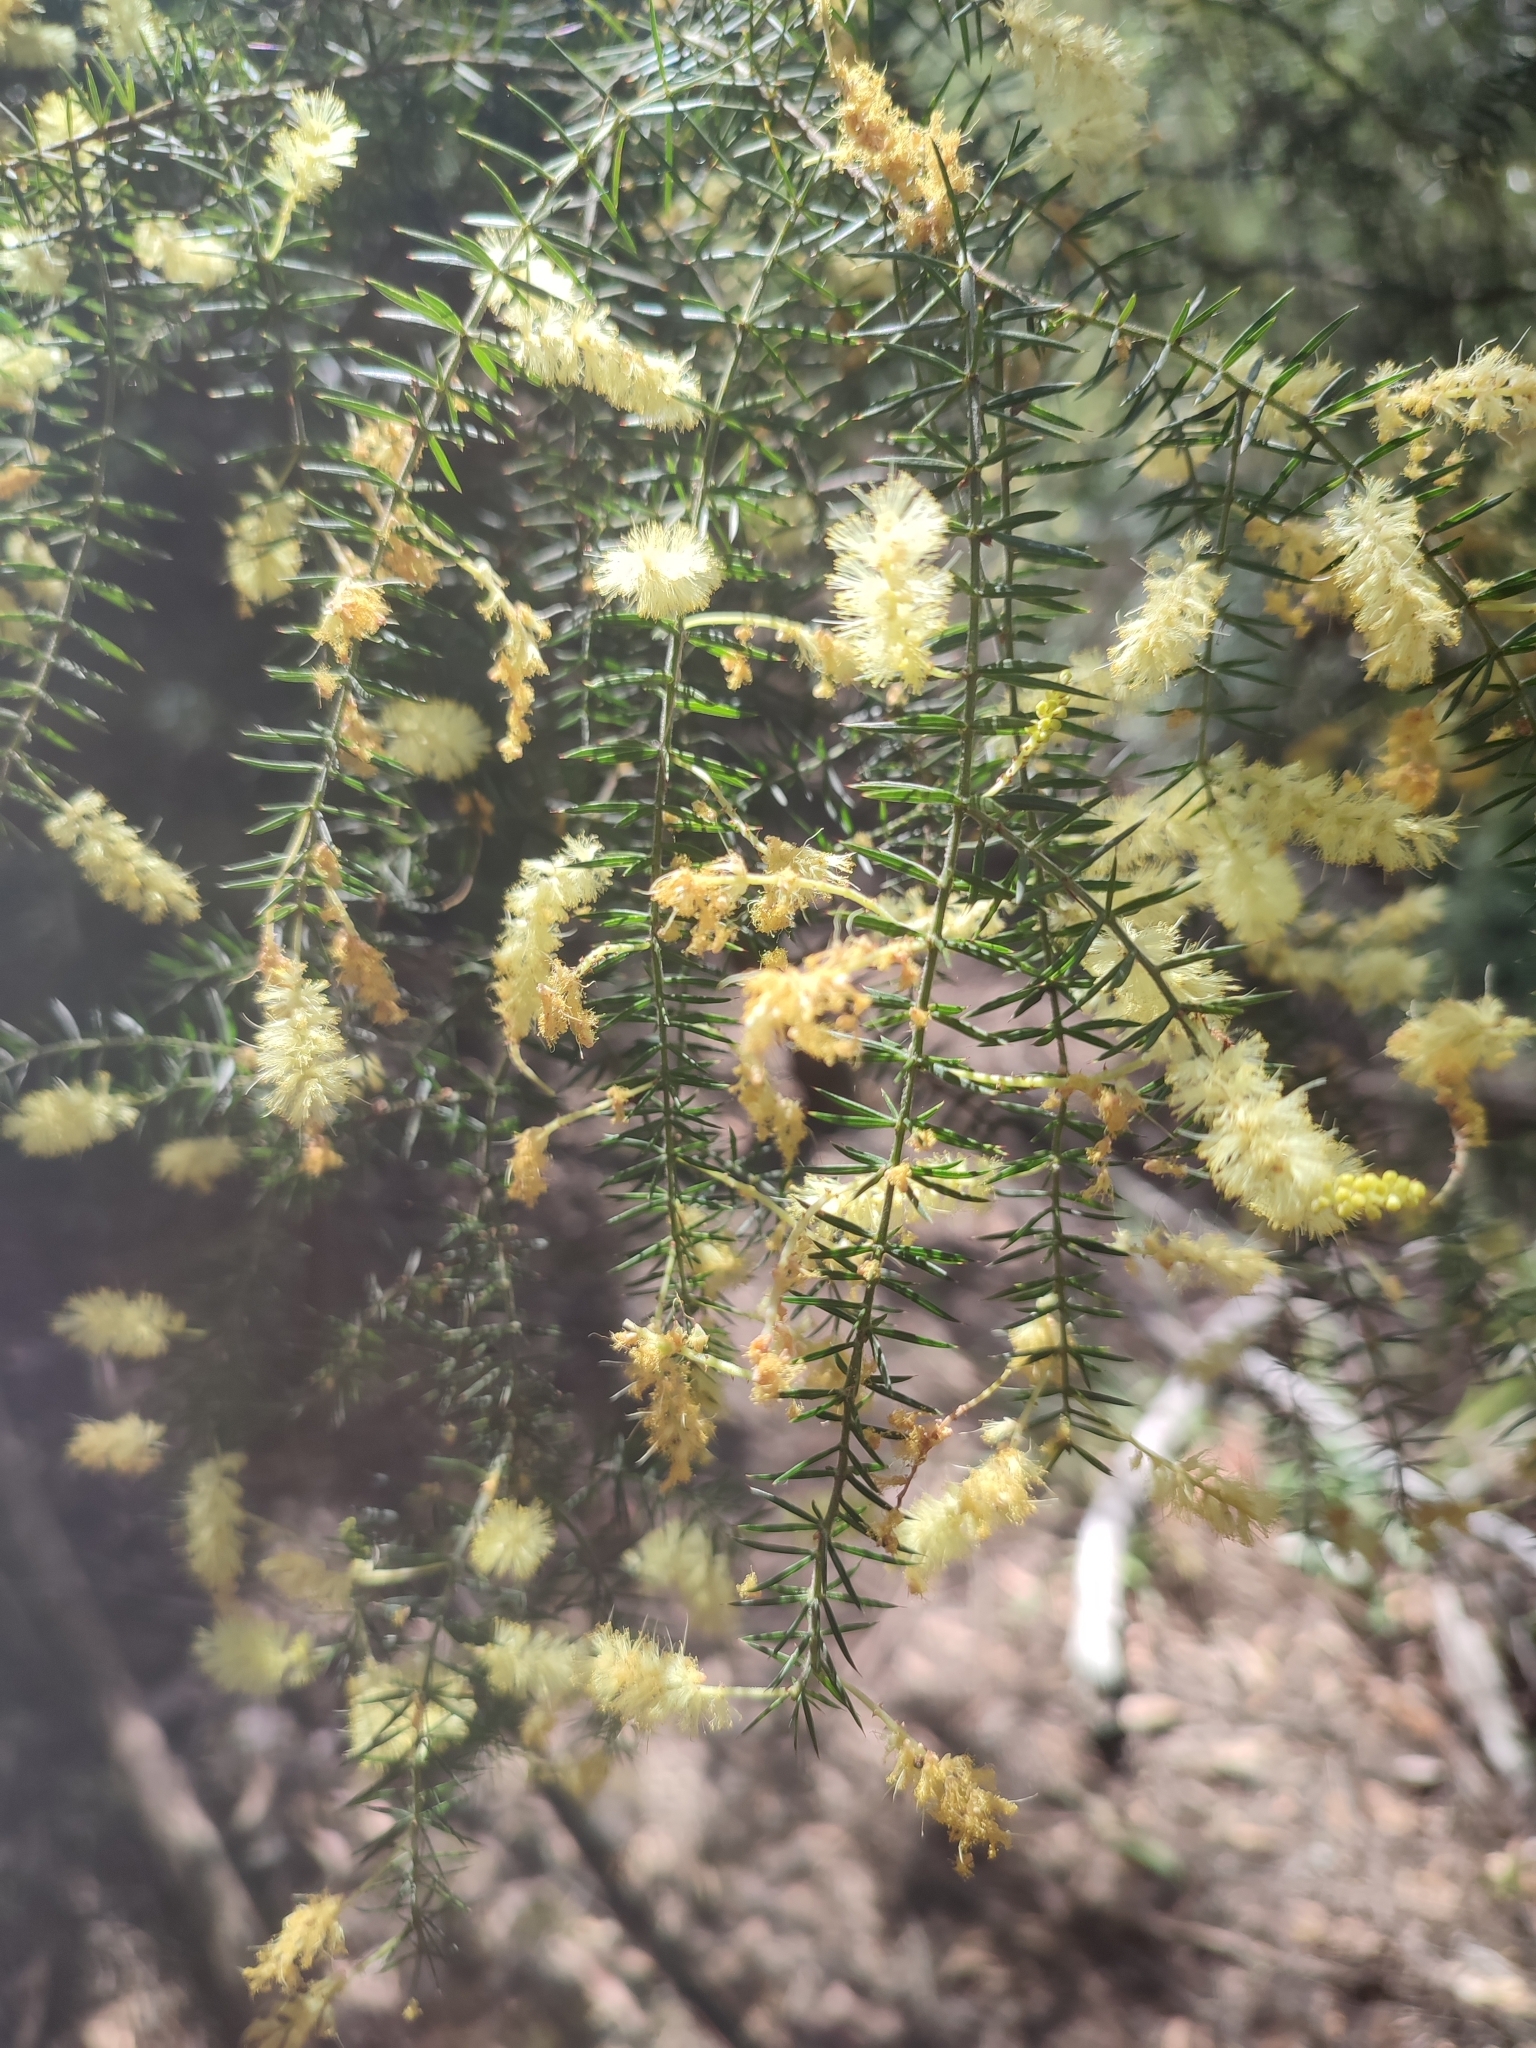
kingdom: Plantae
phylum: Tracheophyta
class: Magnoliopsida
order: Fabales
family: Fabaceae
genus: Acacia
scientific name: Acacia verticillata
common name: Prickly moses
